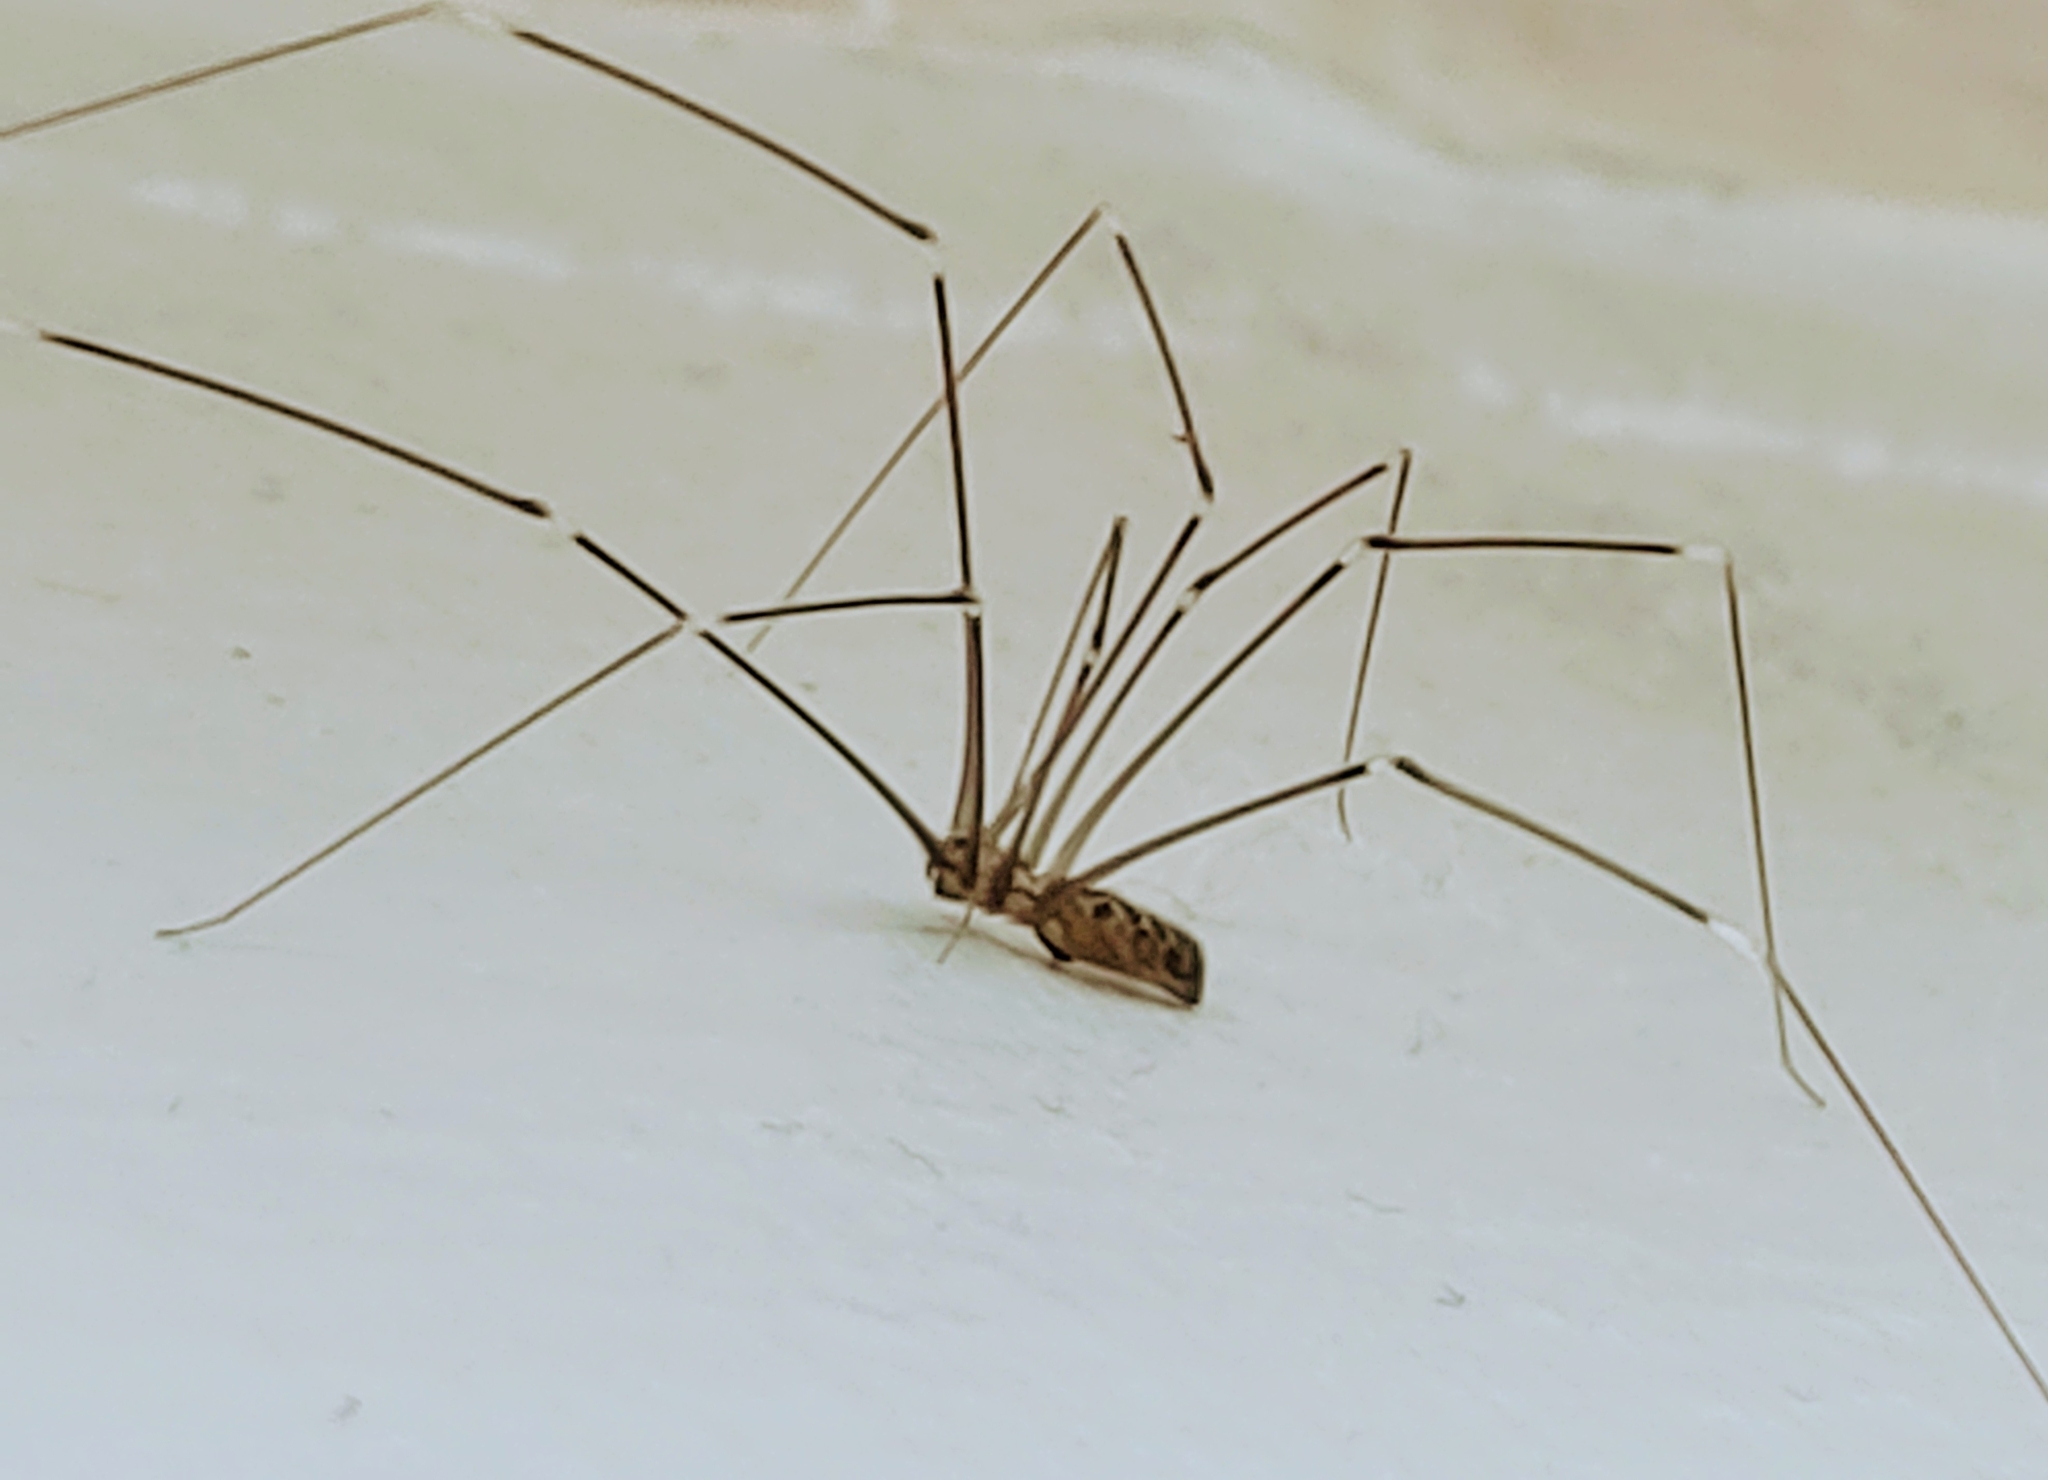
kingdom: Animalia
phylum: Arthropoda
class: Arachnida
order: Araneae
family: Pholcidae
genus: Smeringopus
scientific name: Smeringopus pallidus
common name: Cellar spider
